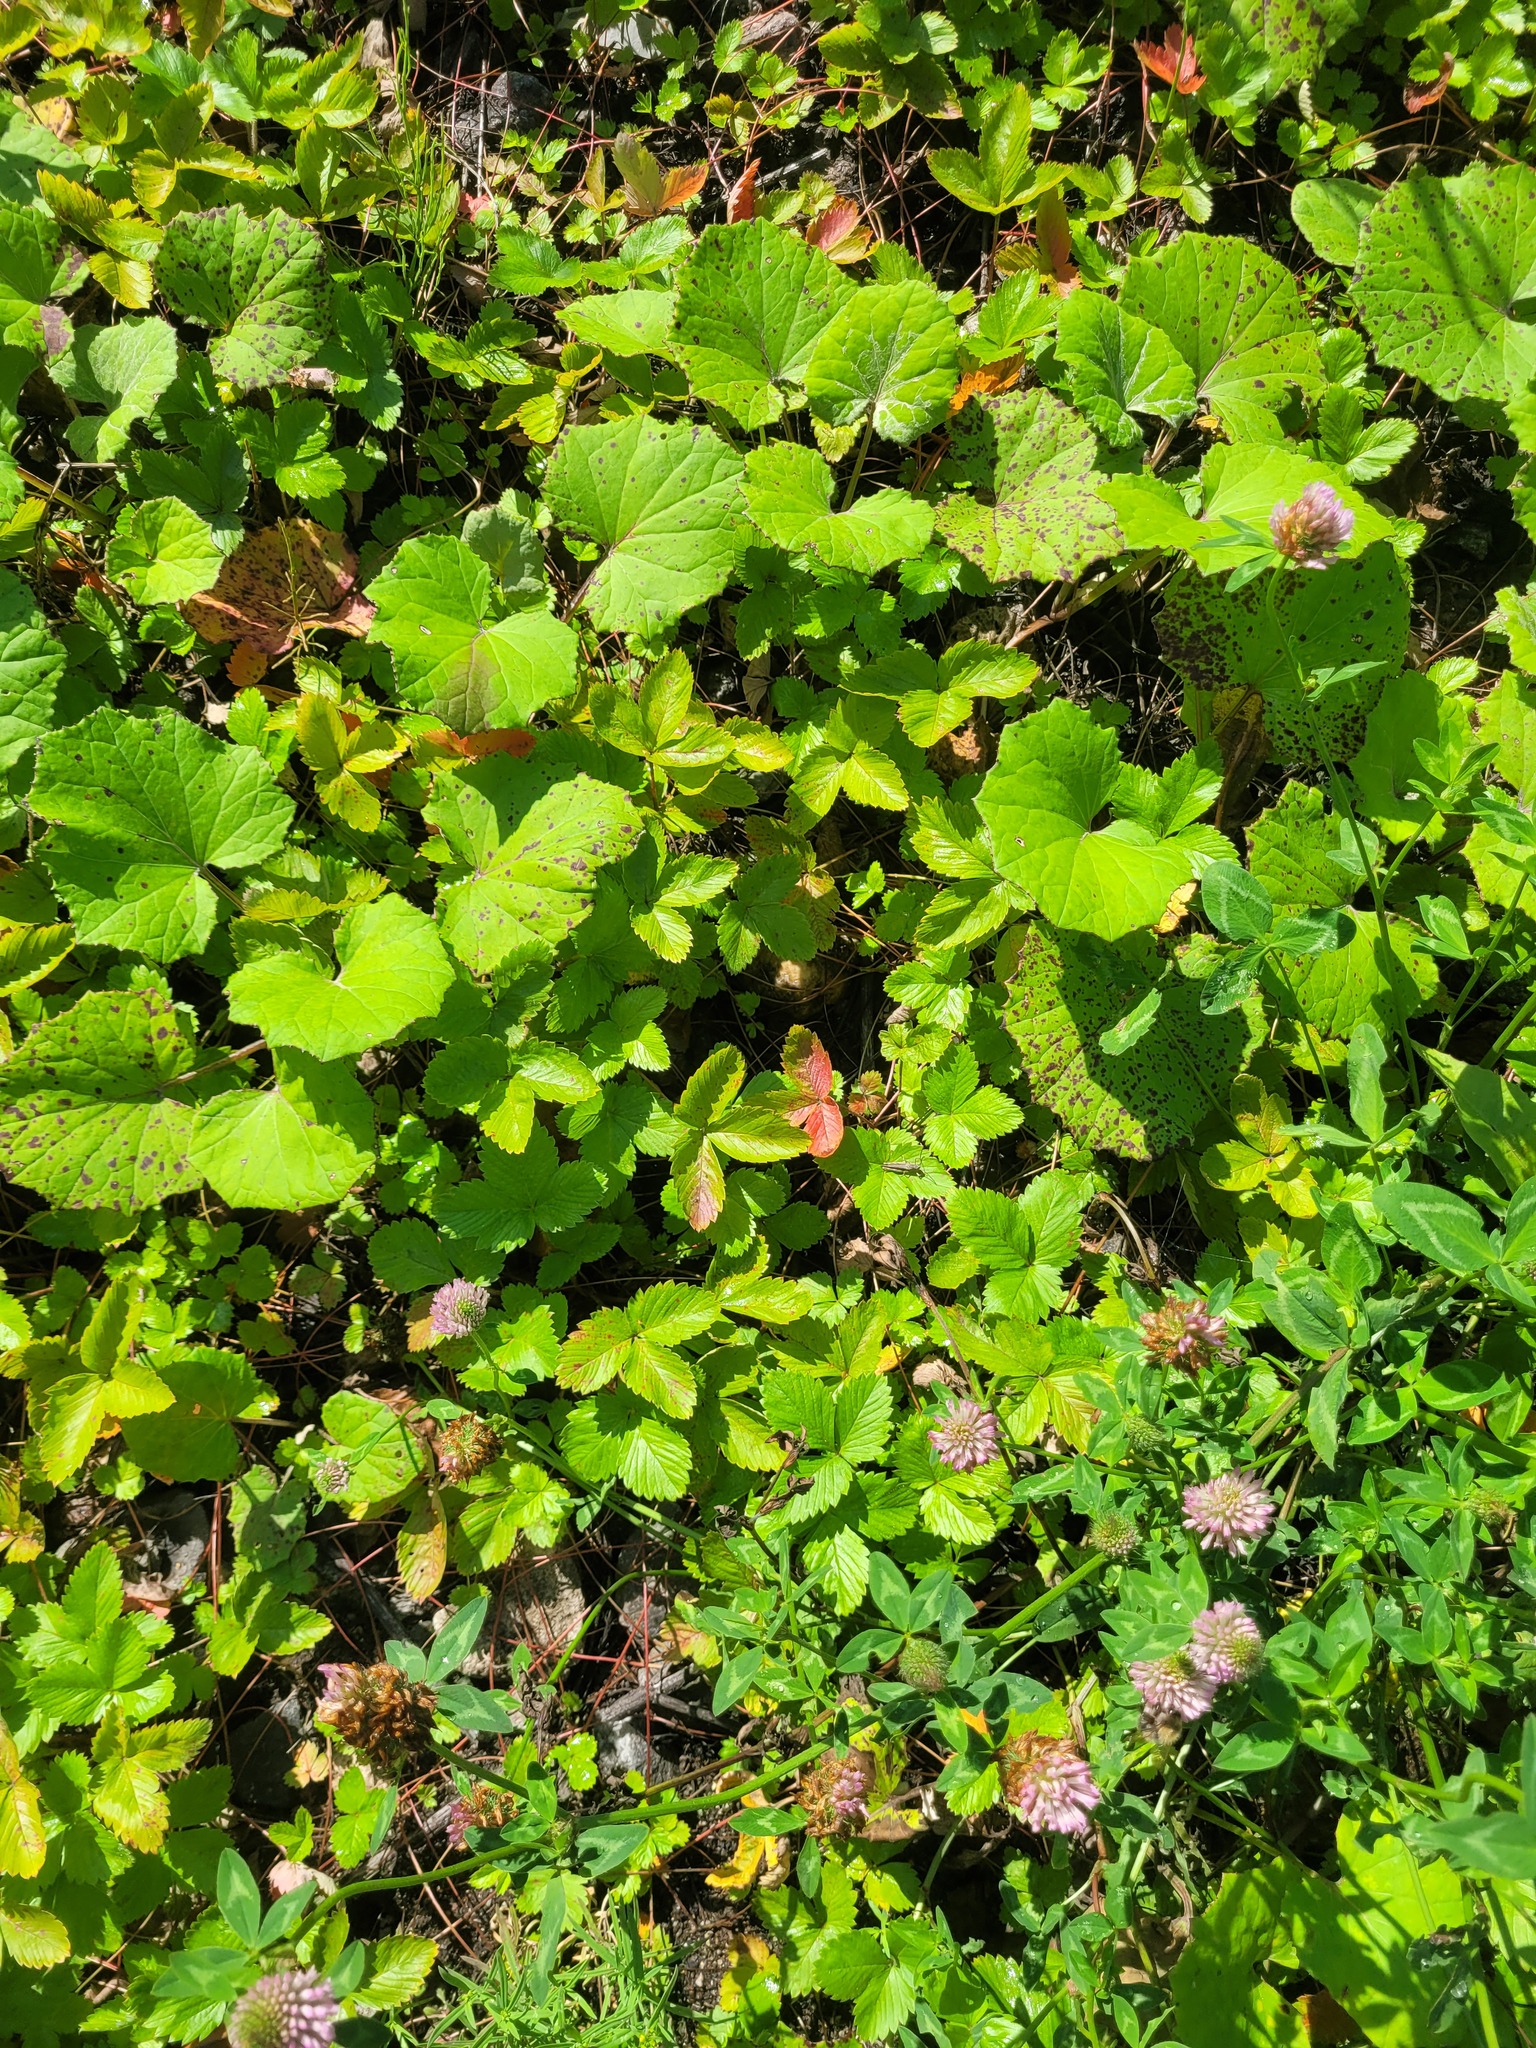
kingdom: Plantae
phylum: Tracheophyta
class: Magnoliopsida
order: Rosales
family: Rosaceae
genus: Fragaria
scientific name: Fragaria vesca
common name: Wild strawberry
